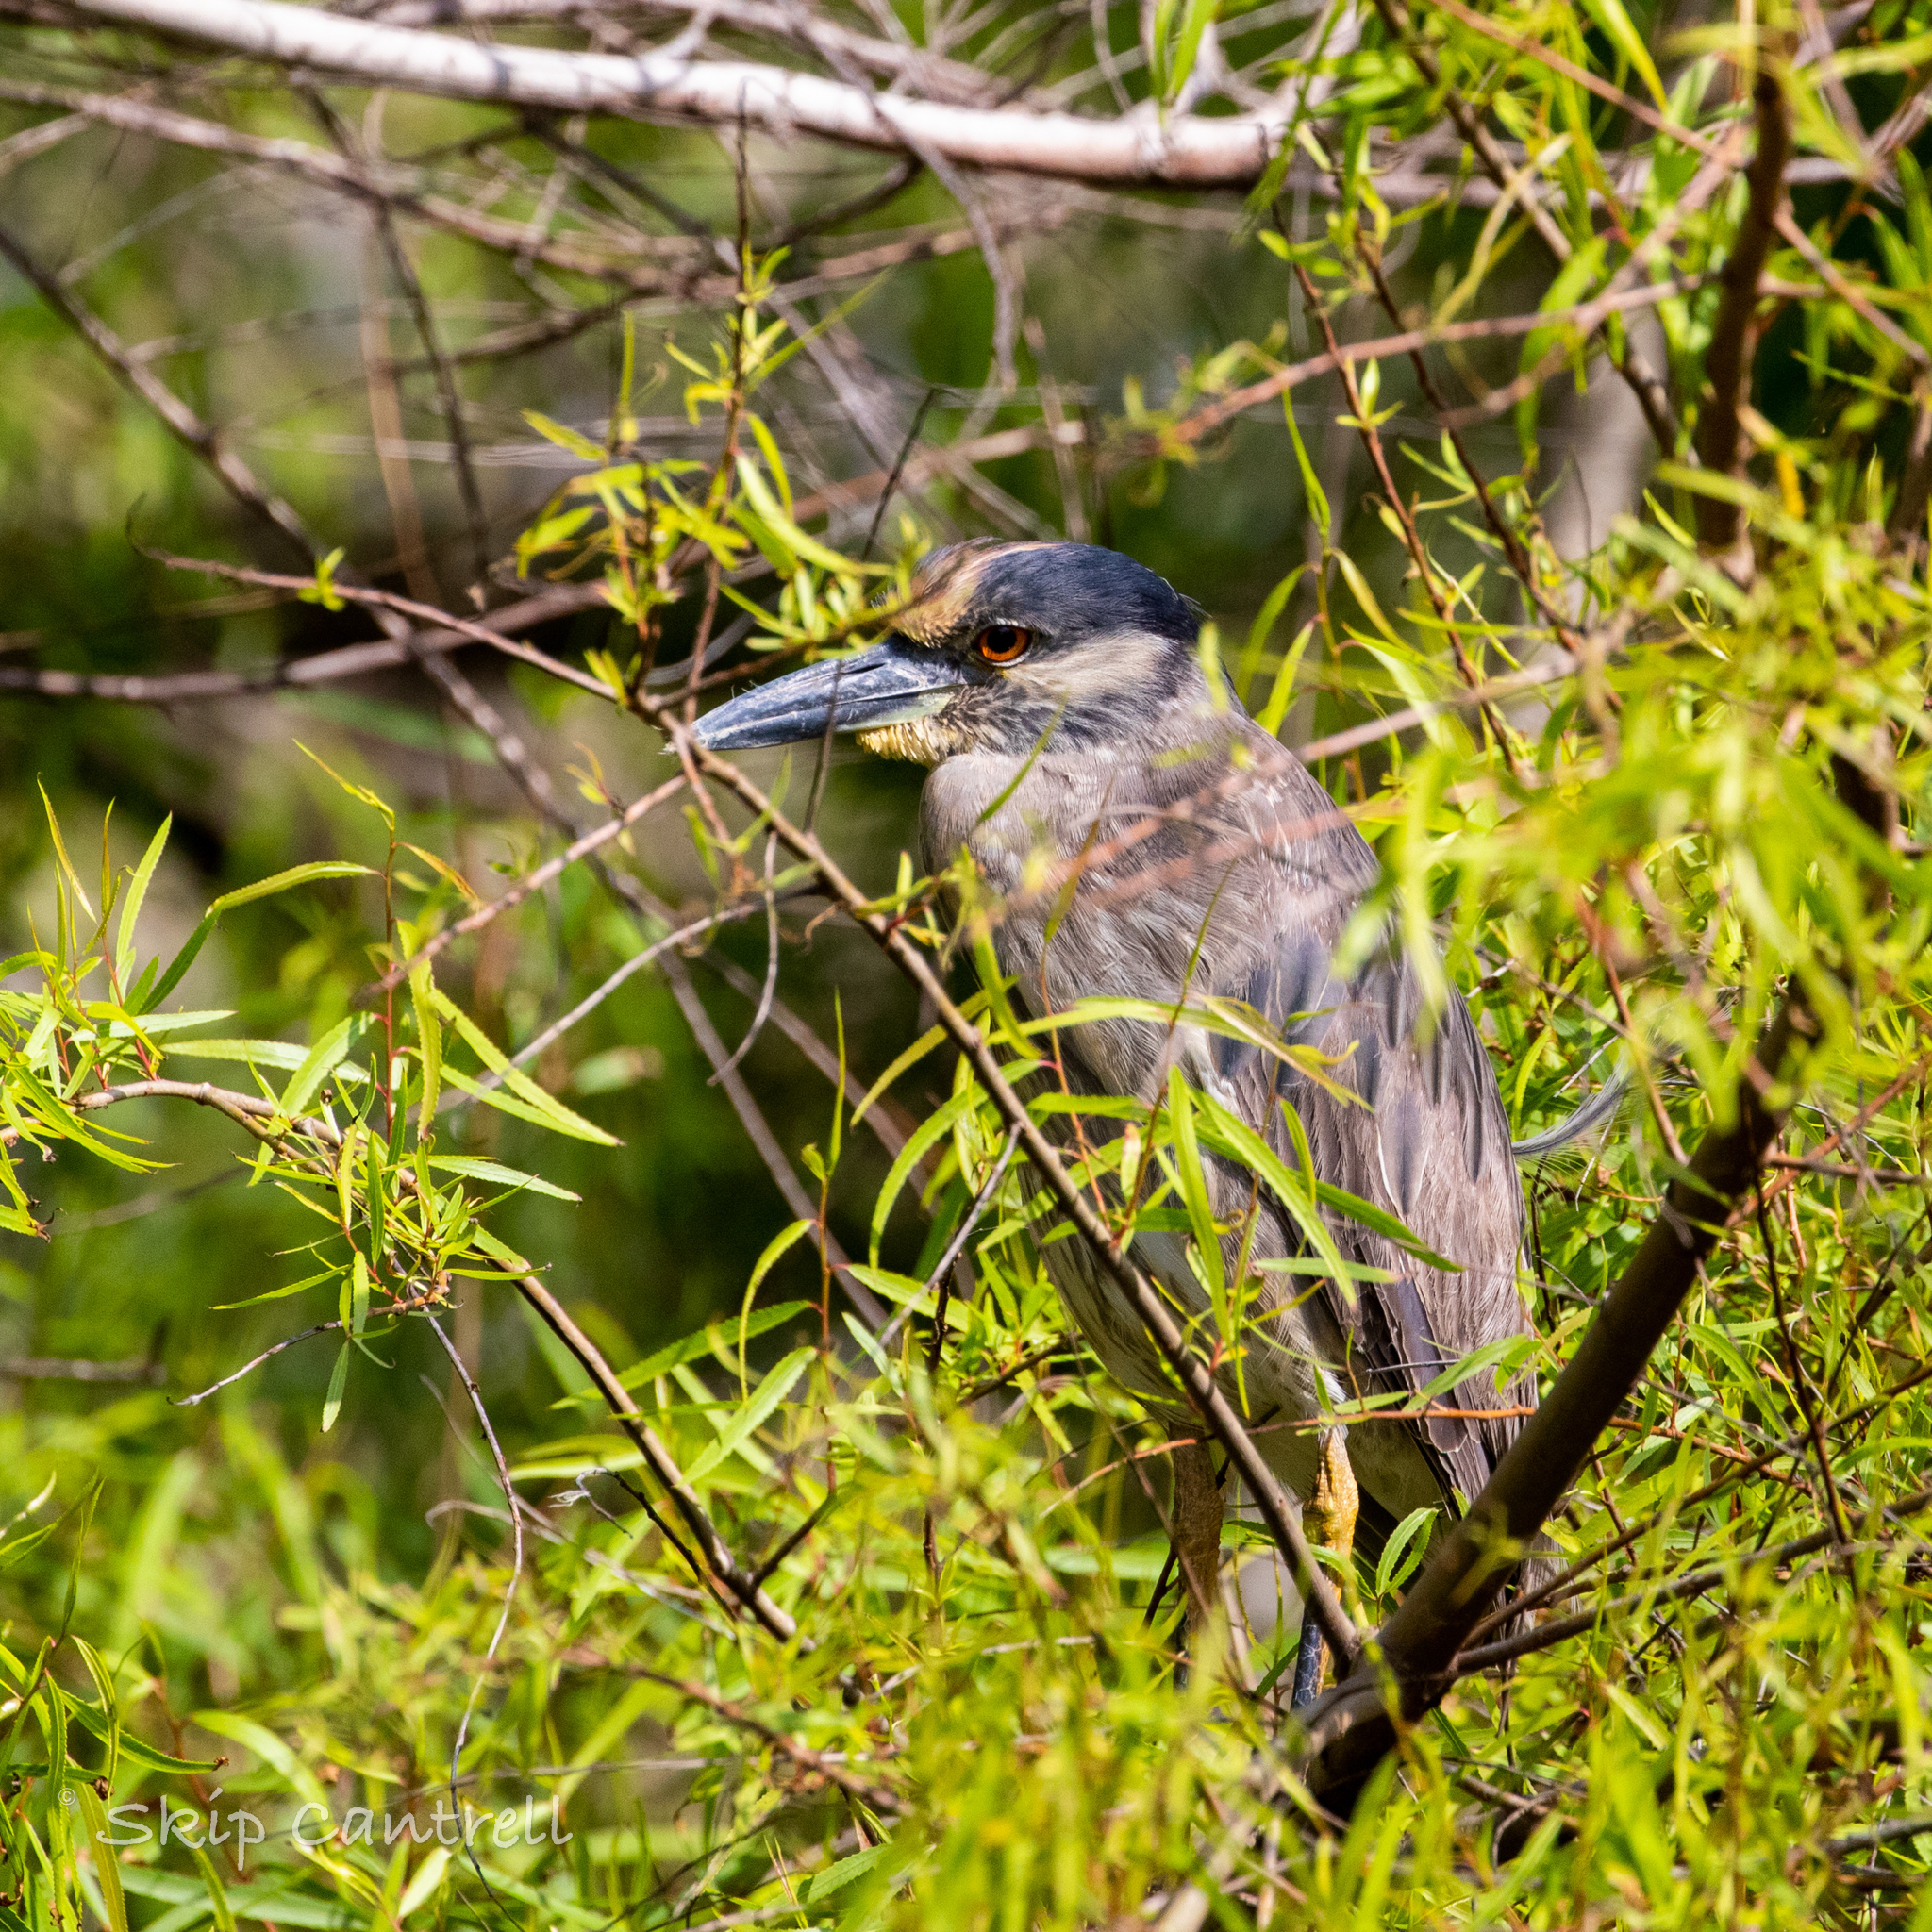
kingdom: Animalia
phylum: Chordata
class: Aves
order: Pelecaniformes
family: Ardeidae
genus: Nyctanassa
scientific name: Nyctanassa violacea
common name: Yellow-crowned night heron
